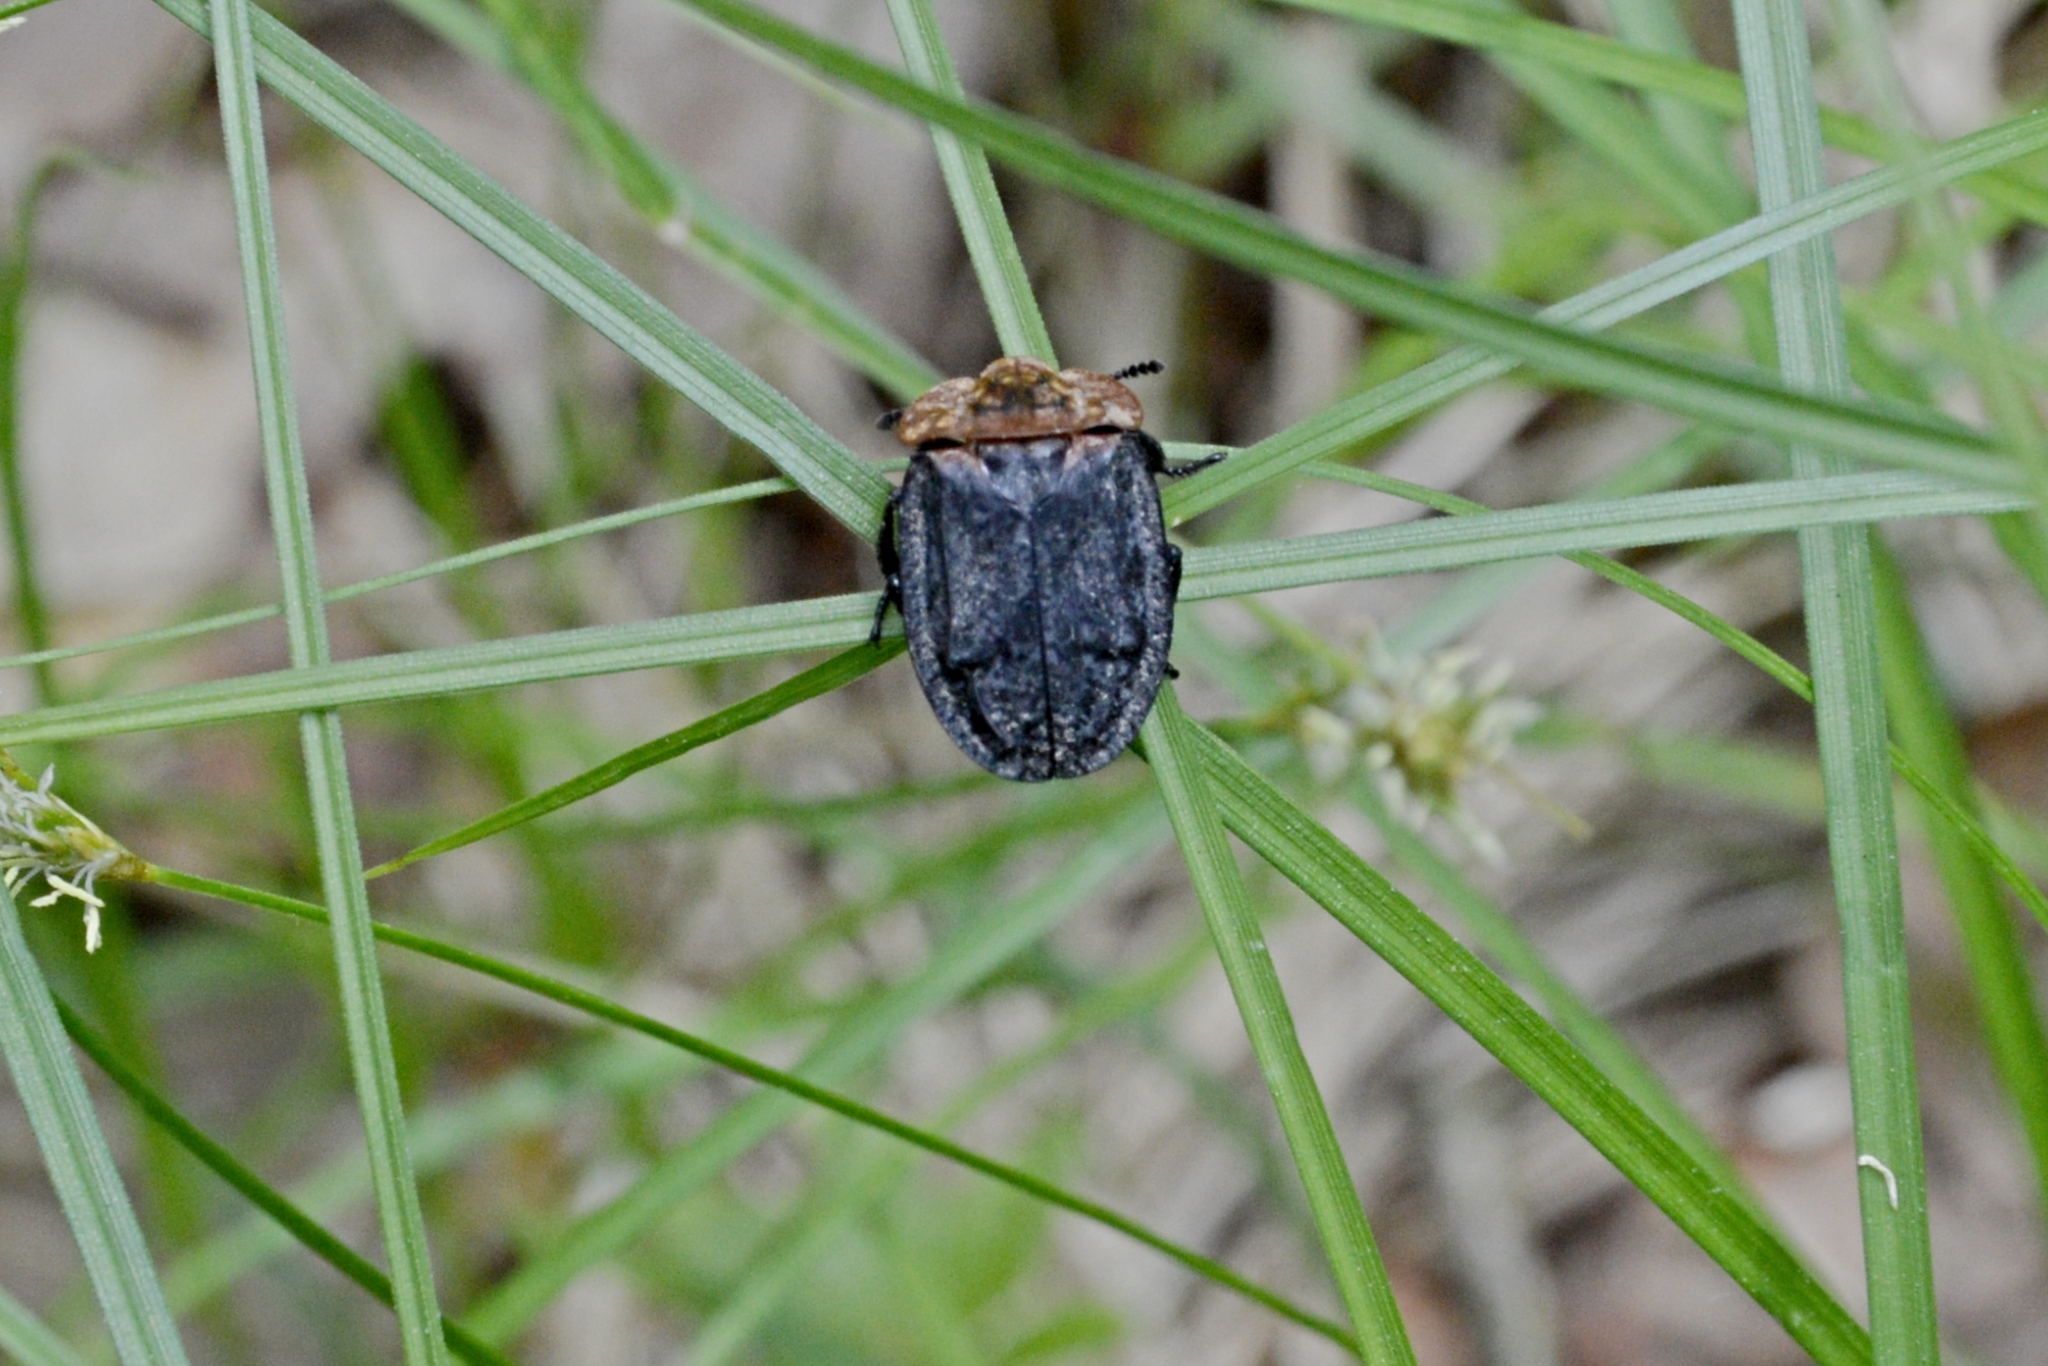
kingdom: Animalia
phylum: Arthropoda
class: Insecta
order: Coleoptera
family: Staphylinidae
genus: Oiceoptoma
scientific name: Oiceoptoma thoracicum
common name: Red-breasted carrion beetle
